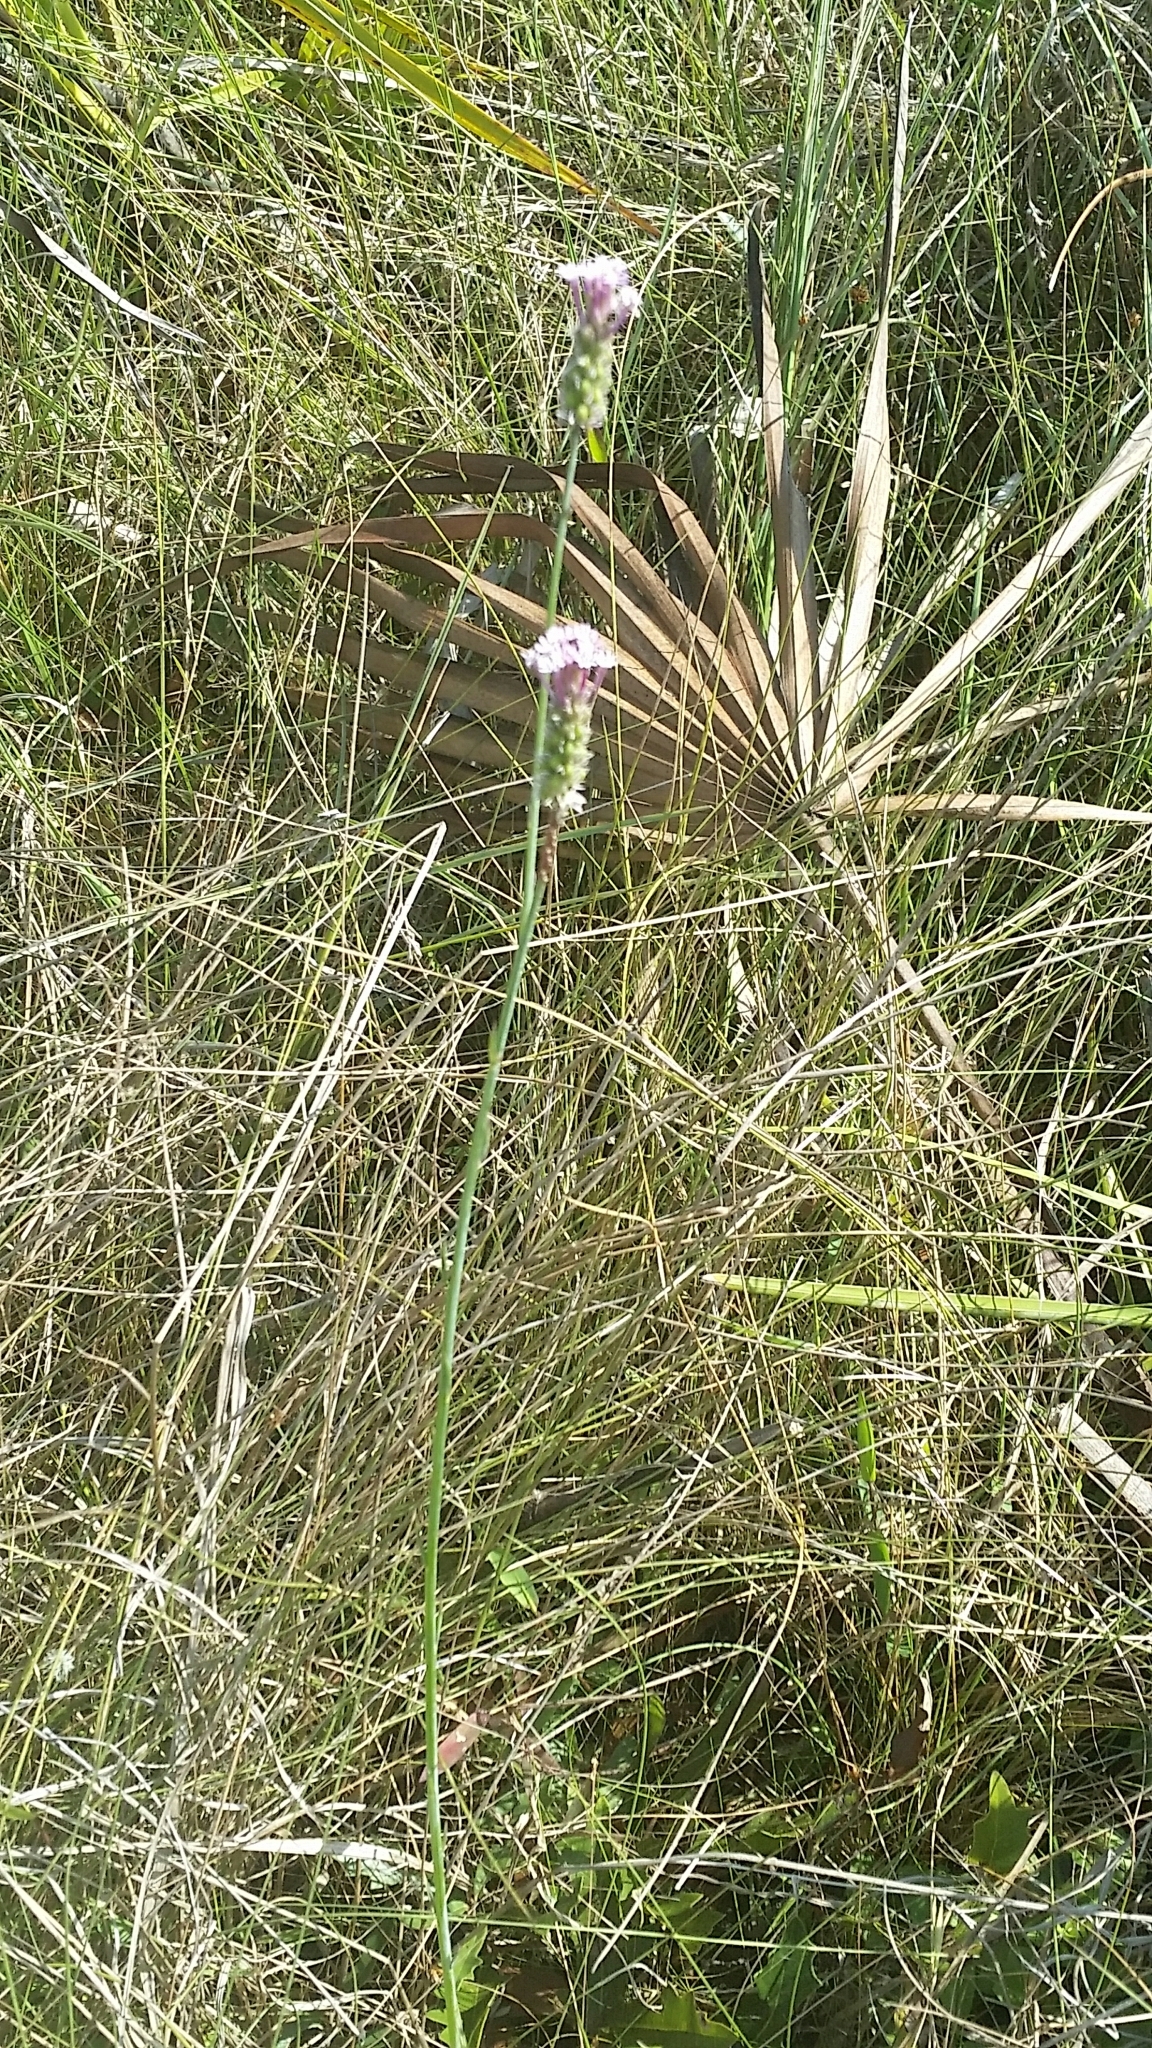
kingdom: Plantae
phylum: Tracheophyta
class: Magnoliopsida
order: Fabales
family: Polygalaceae
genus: Polygala
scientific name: Polygala incarnata
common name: Pink milkwort
